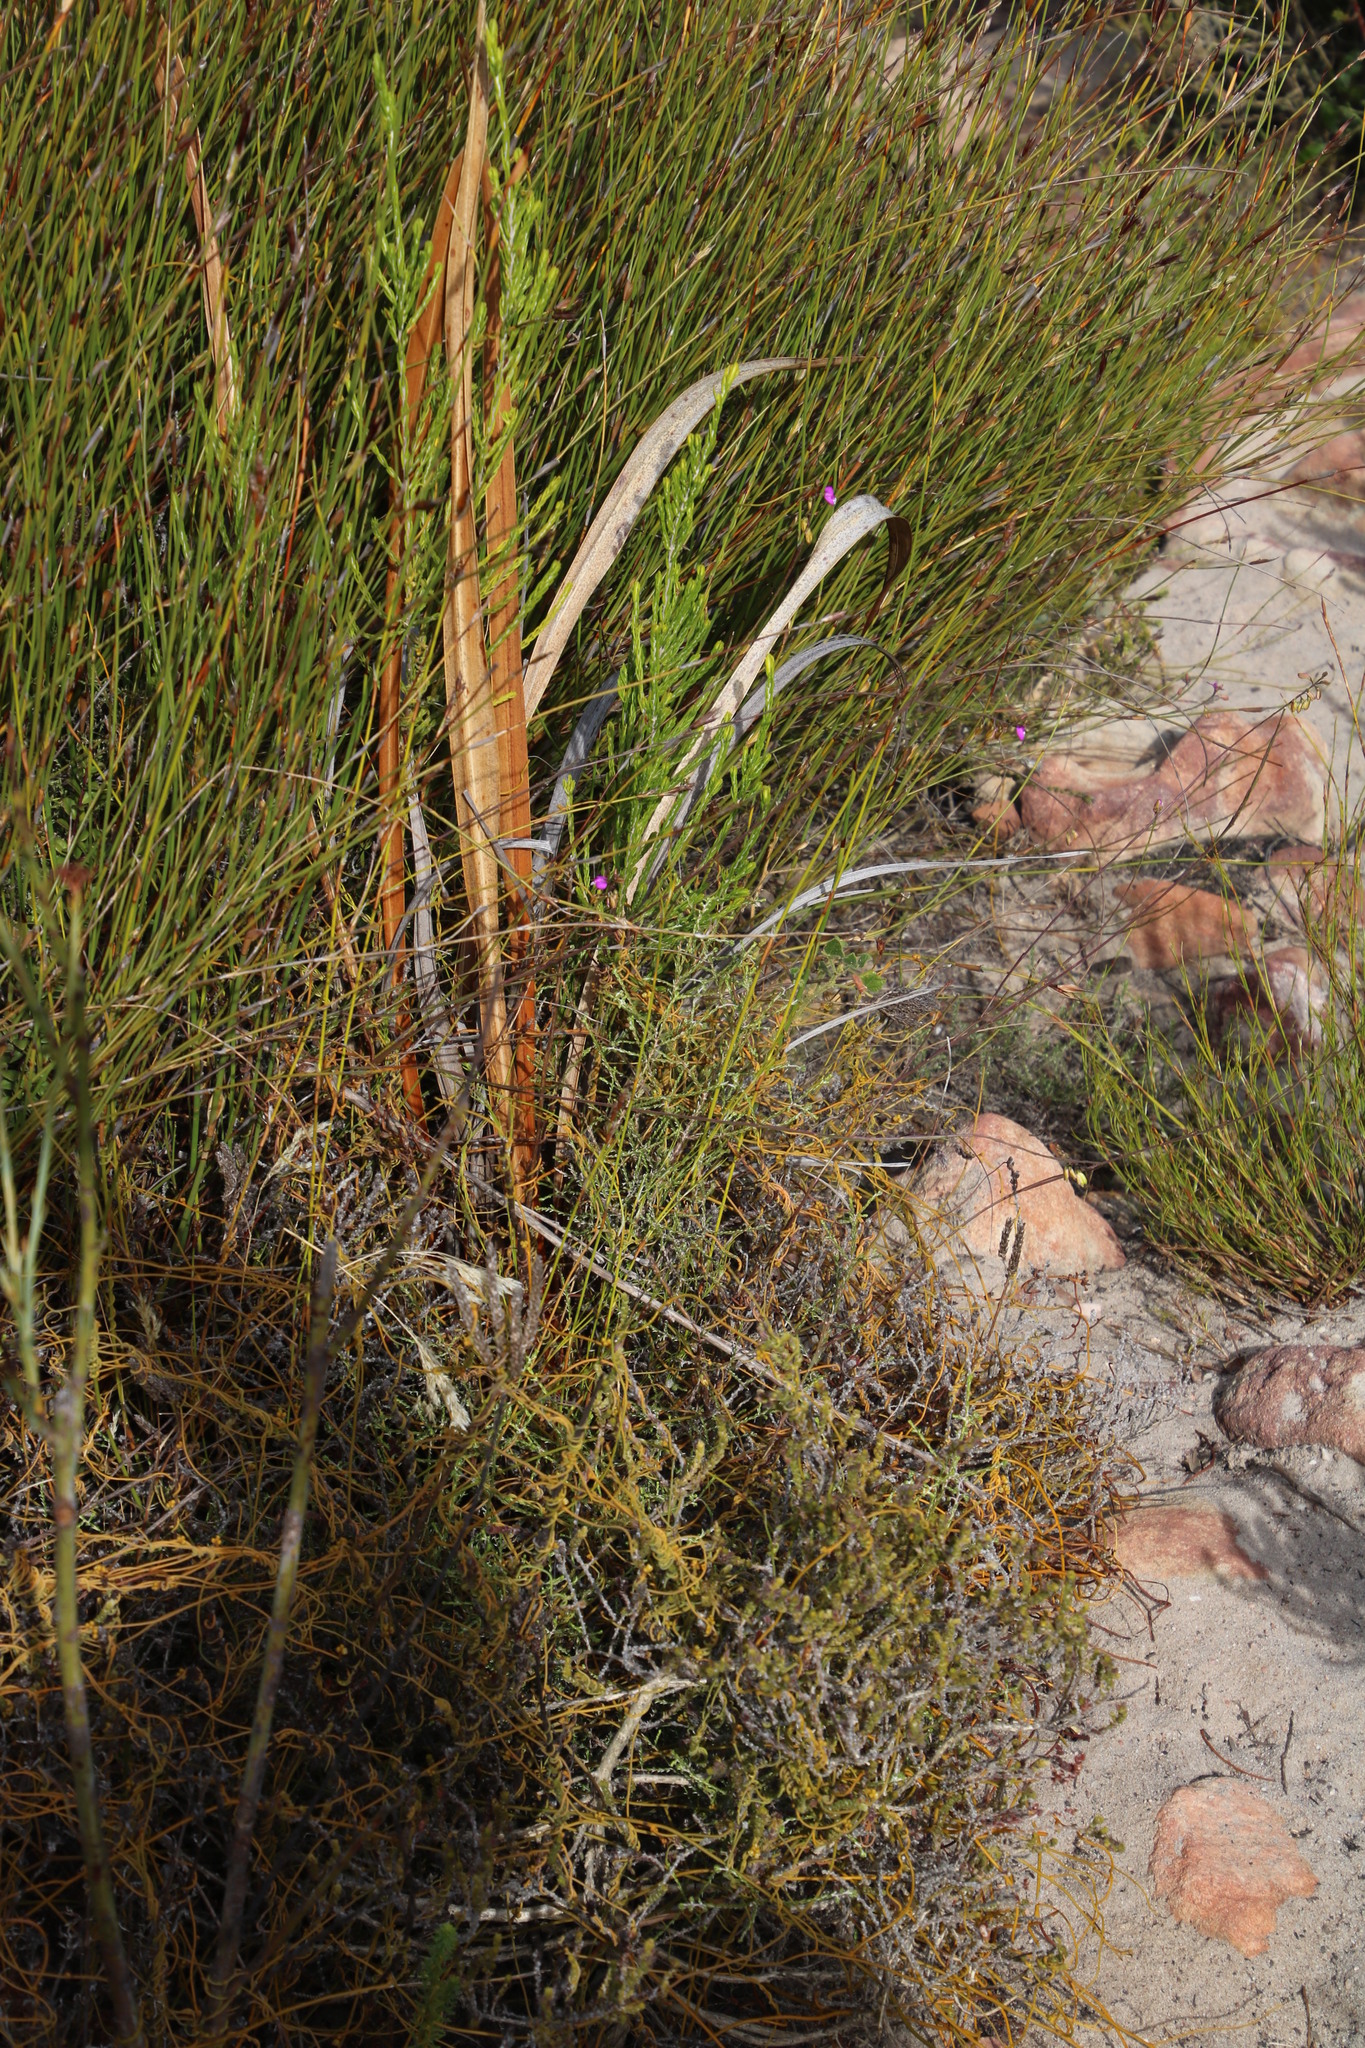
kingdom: Plantae
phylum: Tracheophyta
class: Magnoliopsida
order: Fabales
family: Polygalaceae
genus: Polygala
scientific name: Polygala garcini
